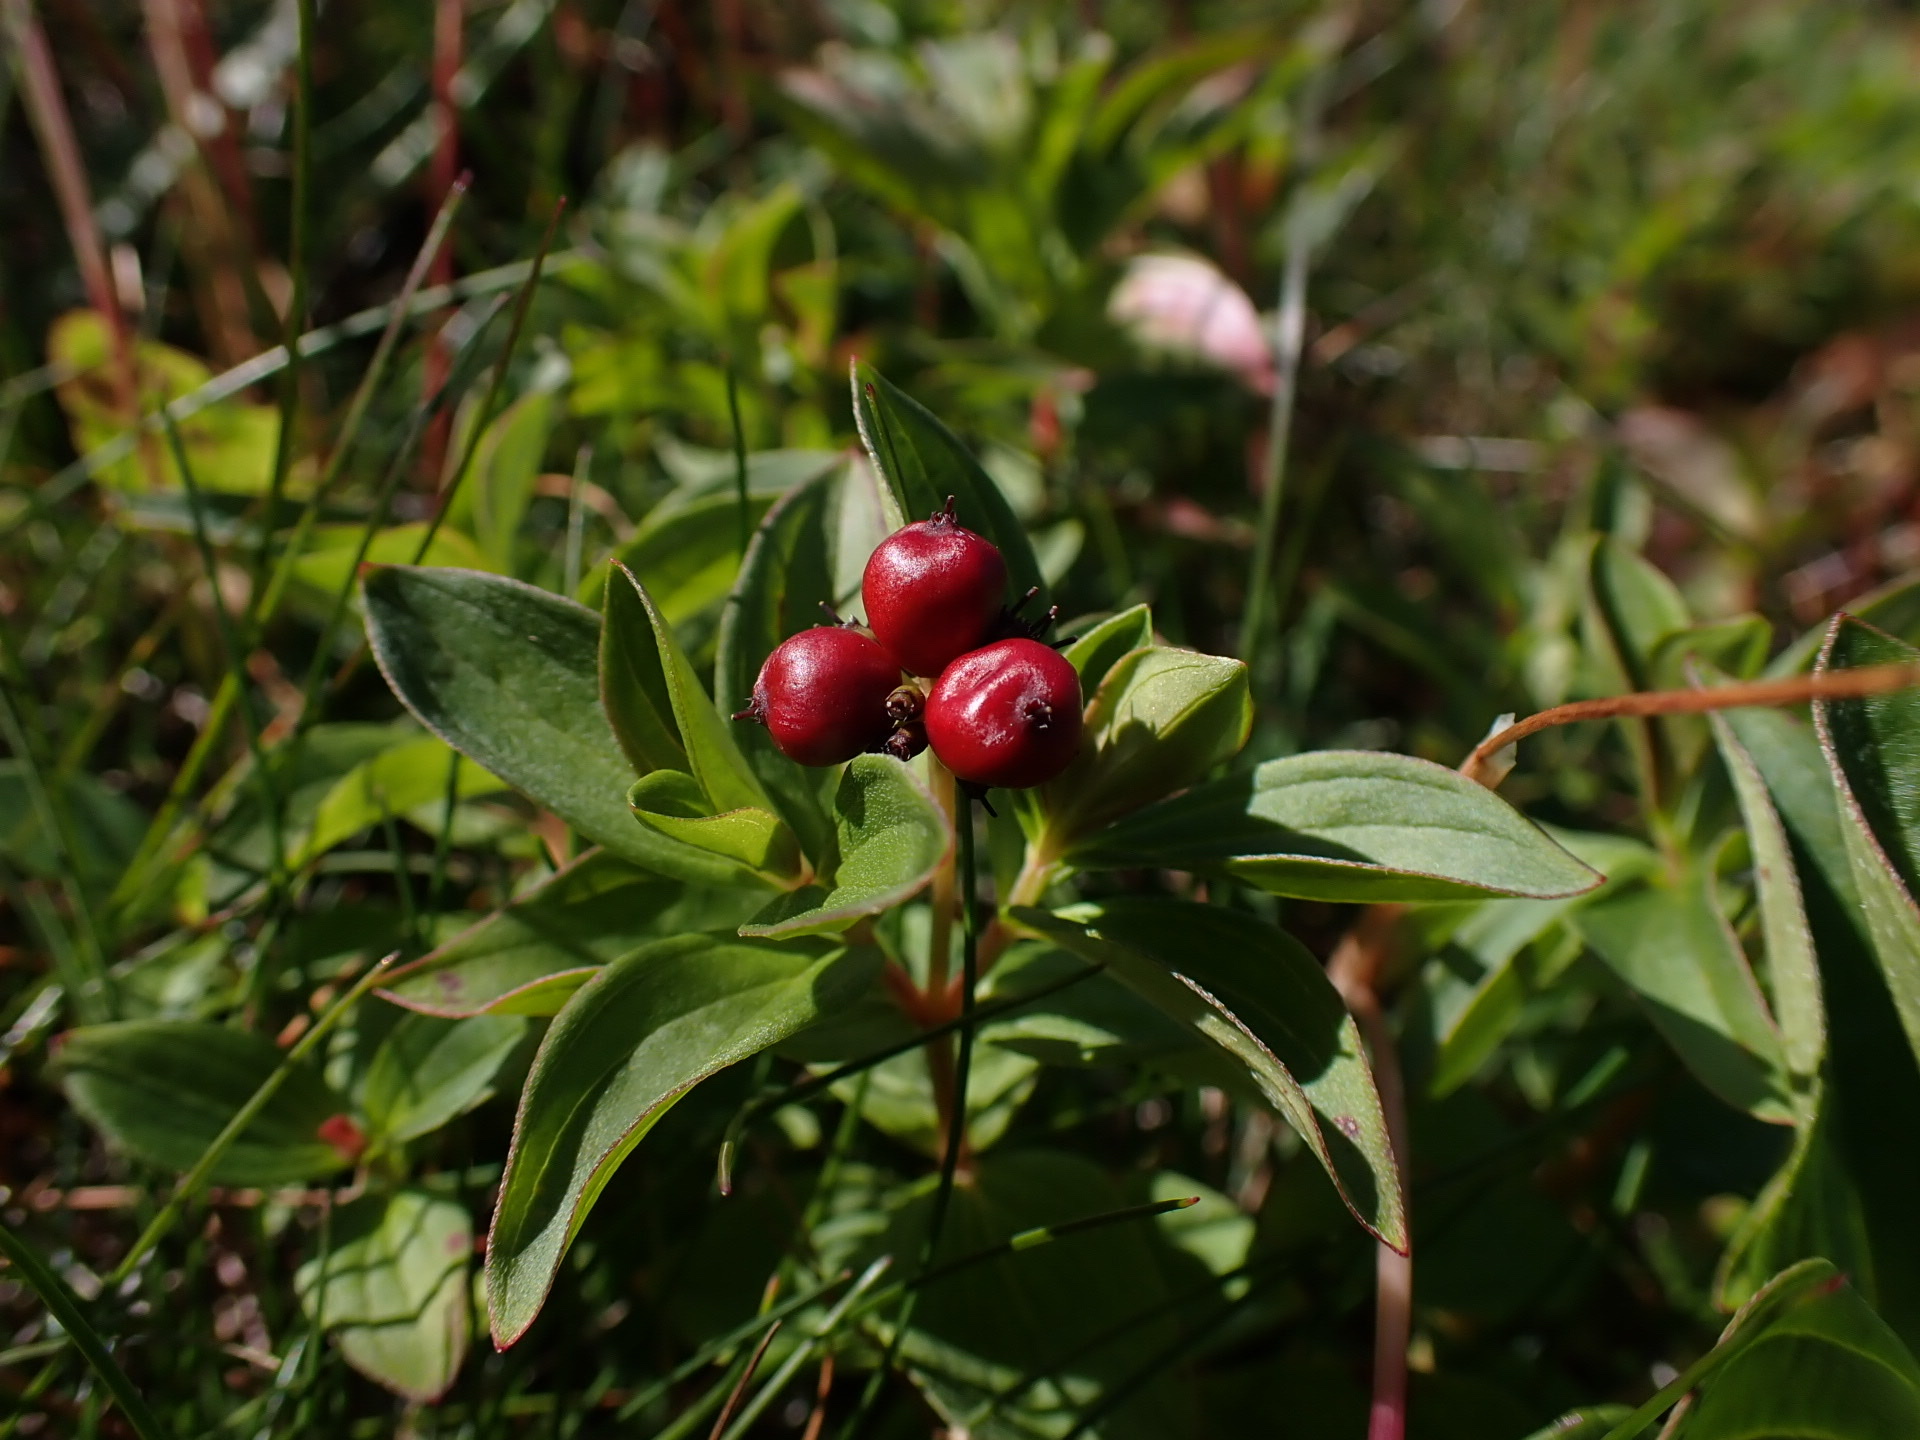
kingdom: Plantae
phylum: Tracheophyta
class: Magnoliopsida
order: Cornales
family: Cornaceae
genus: Cornus
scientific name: Cornus suecica
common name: Dwarf cornel
